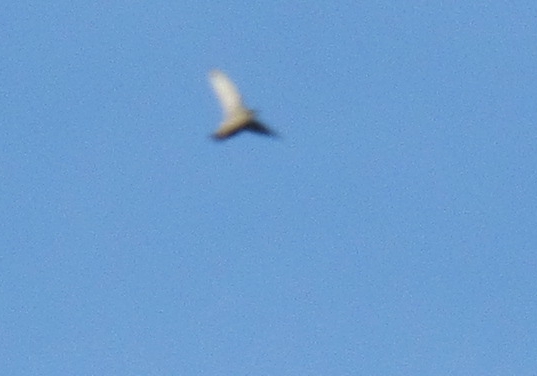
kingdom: Animalia
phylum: Chordata
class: Aves
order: Apodiformes
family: Apodidae
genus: Chaetura
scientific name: Chaetura vauxi
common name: Vaux's swift
